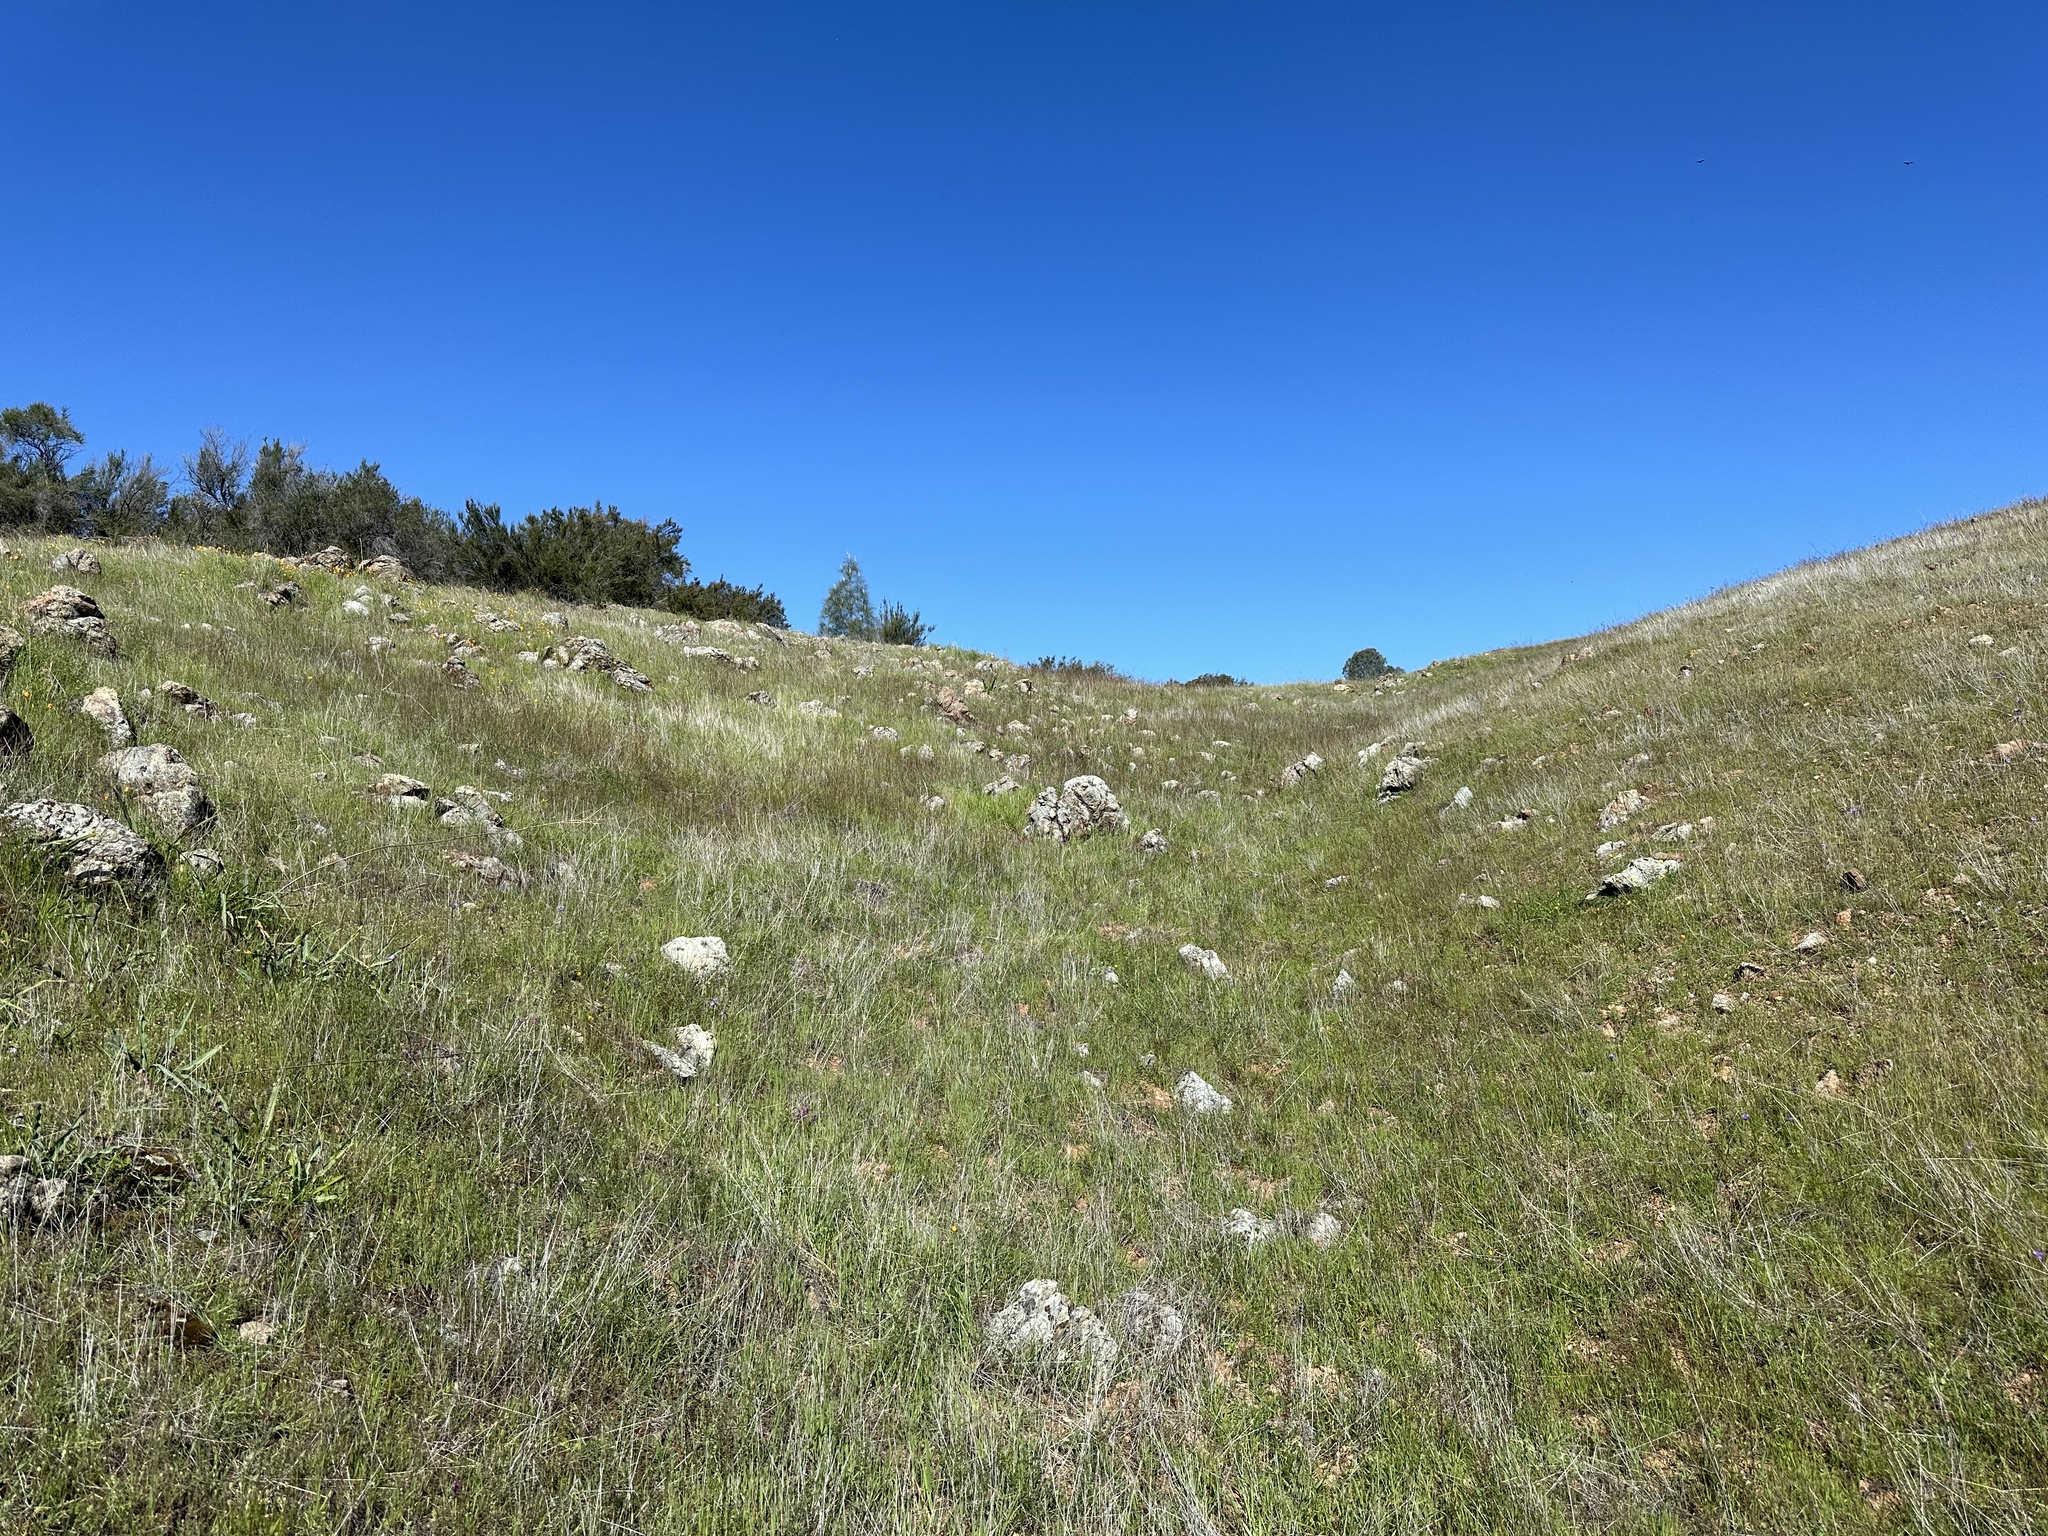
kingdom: Plantae
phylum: Tracheophyta
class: Magnoliopsida
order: Lamiales
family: Phrymaceae
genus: Erythranthe
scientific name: Erythranthe marmorata
